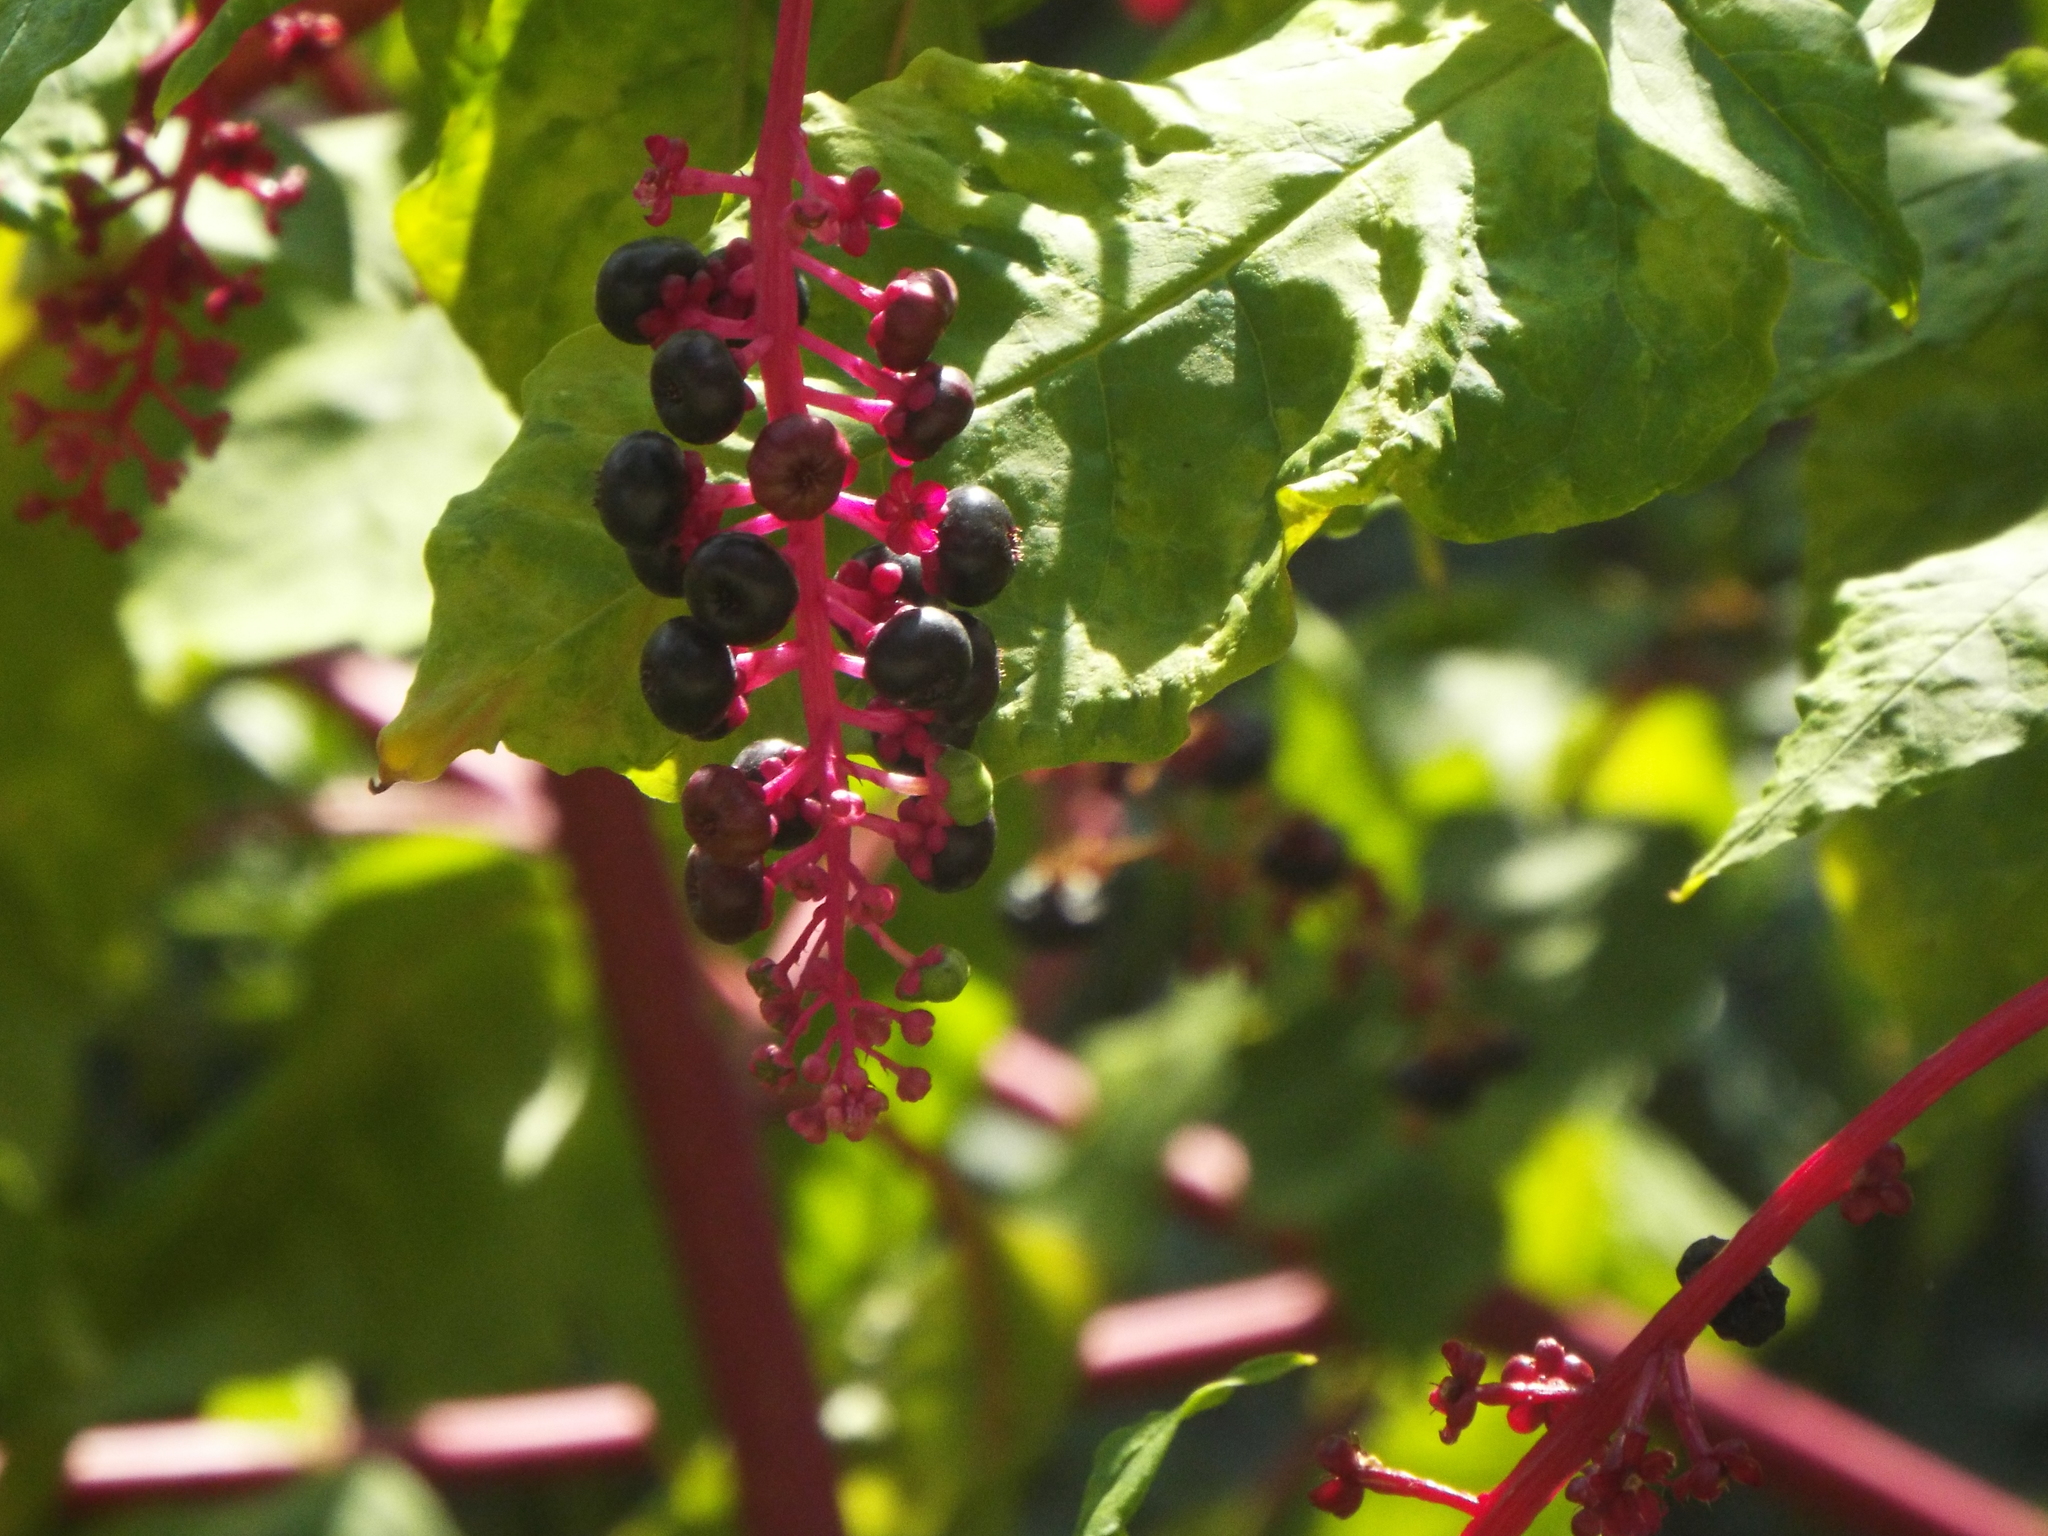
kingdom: Plantae
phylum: Tracheophyta
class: Magnoliopsida
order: Caryophyllales
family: Phytolaccaceae
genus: Phytolacca
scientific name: Phytolacca americana
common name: American pokeweed
